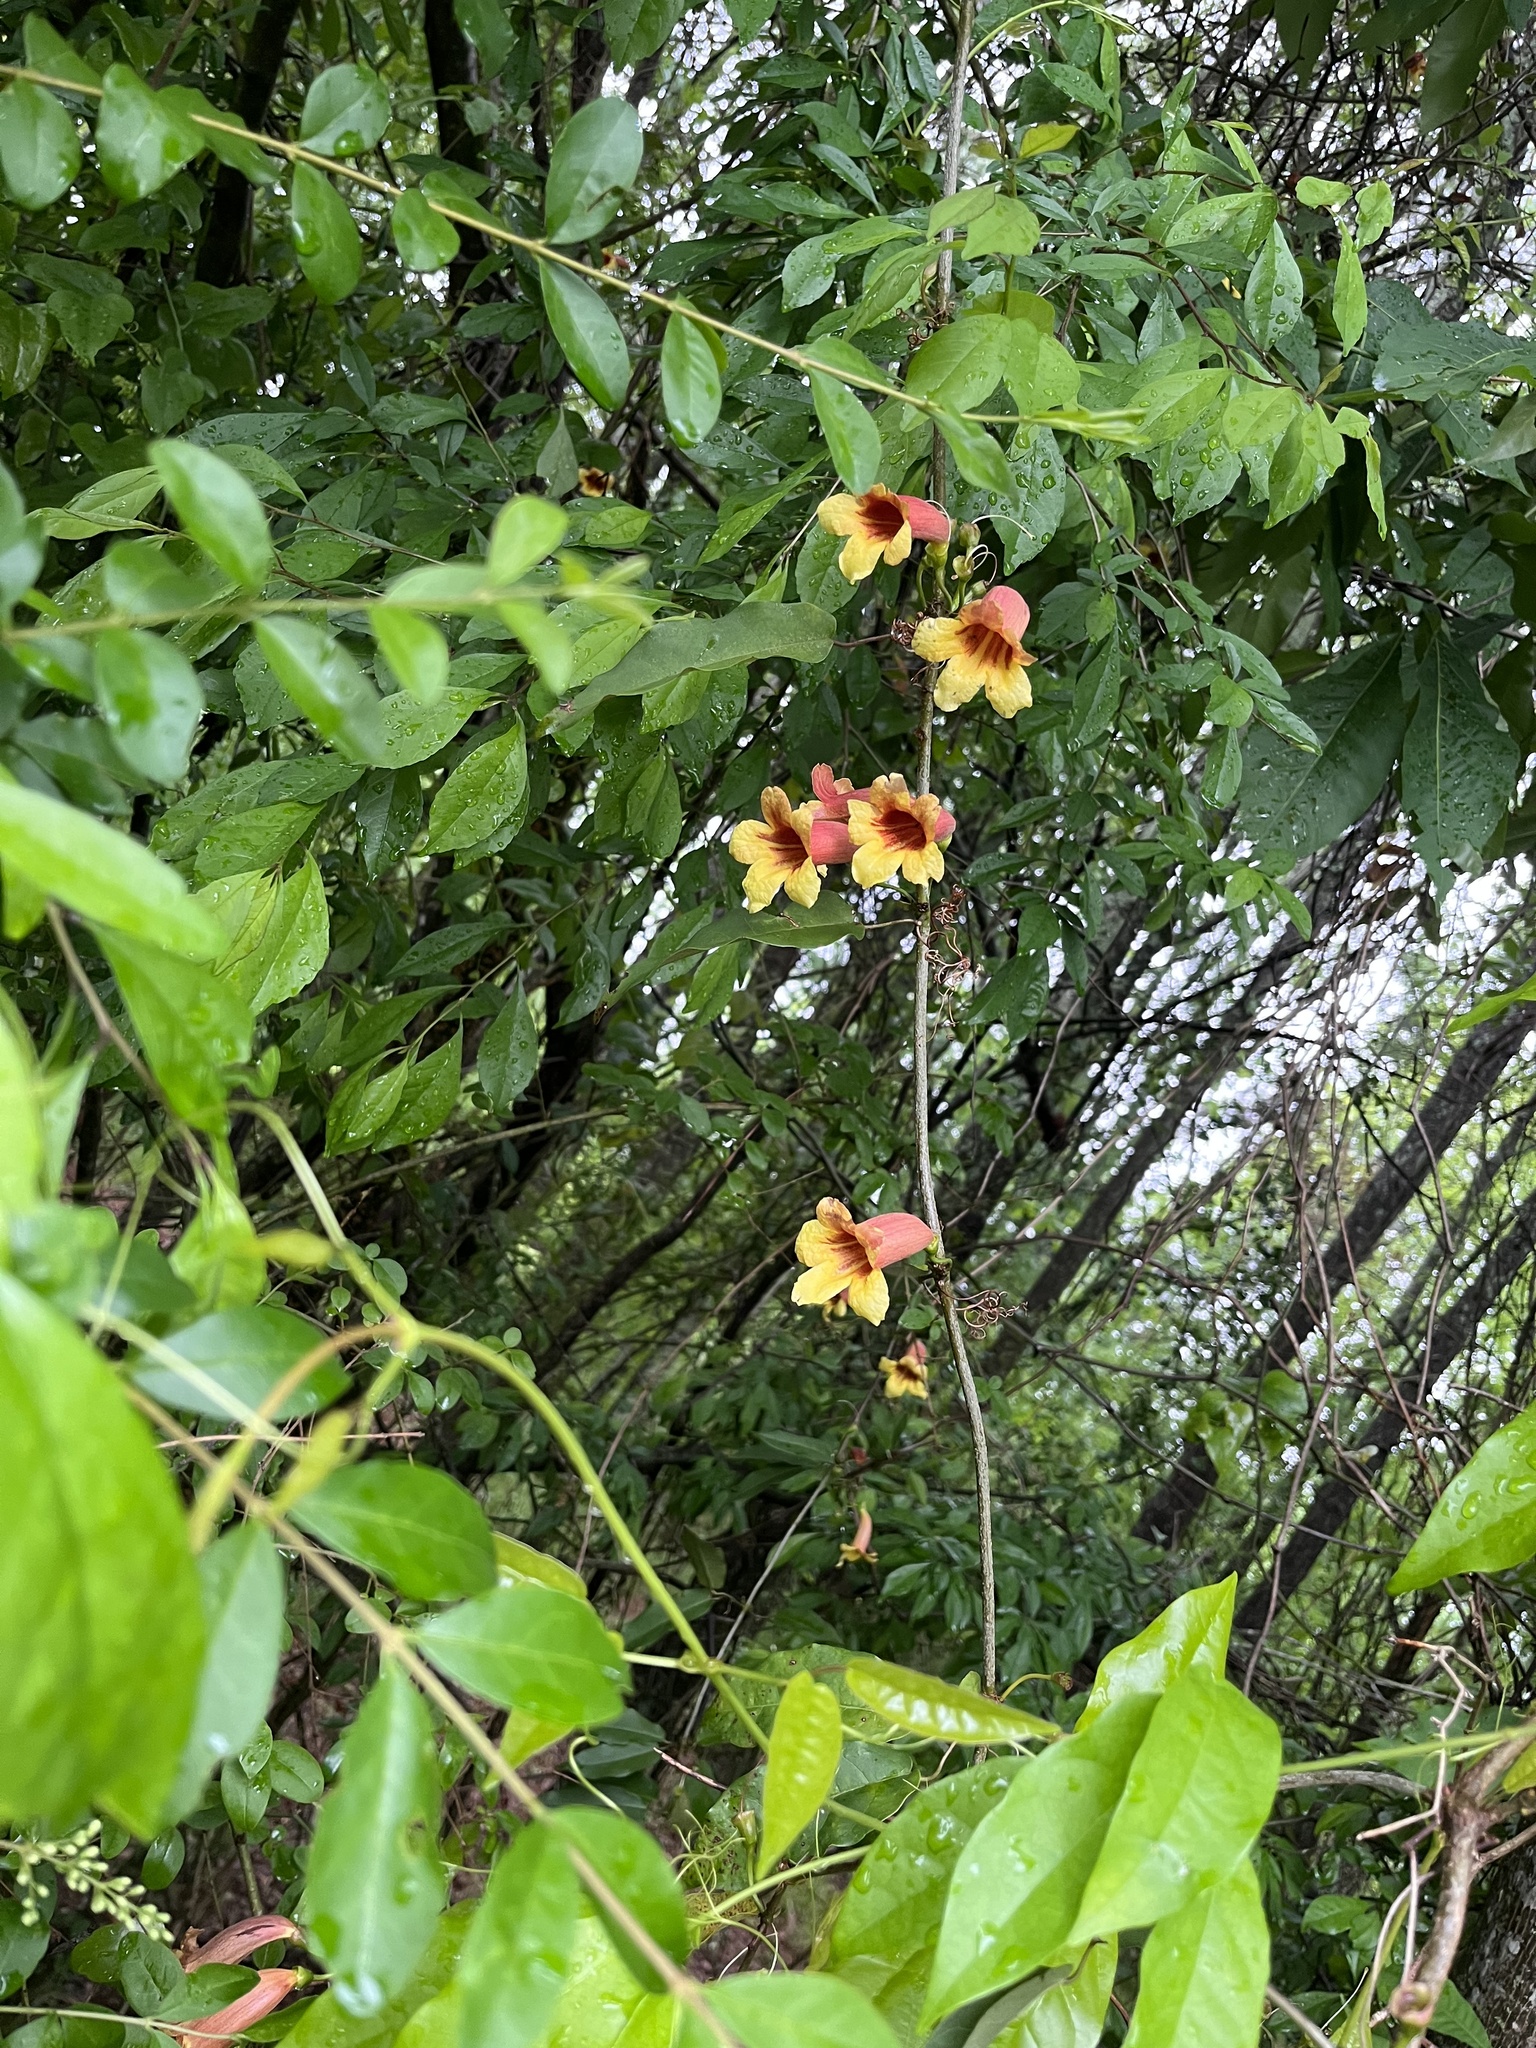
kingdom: Plantae
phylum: Tracheophyta
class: Magnoliopsida
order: Lamiales
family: Bignoniaceae
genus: Bignonia
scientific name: Bignonia capreolata
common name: Crossvine
